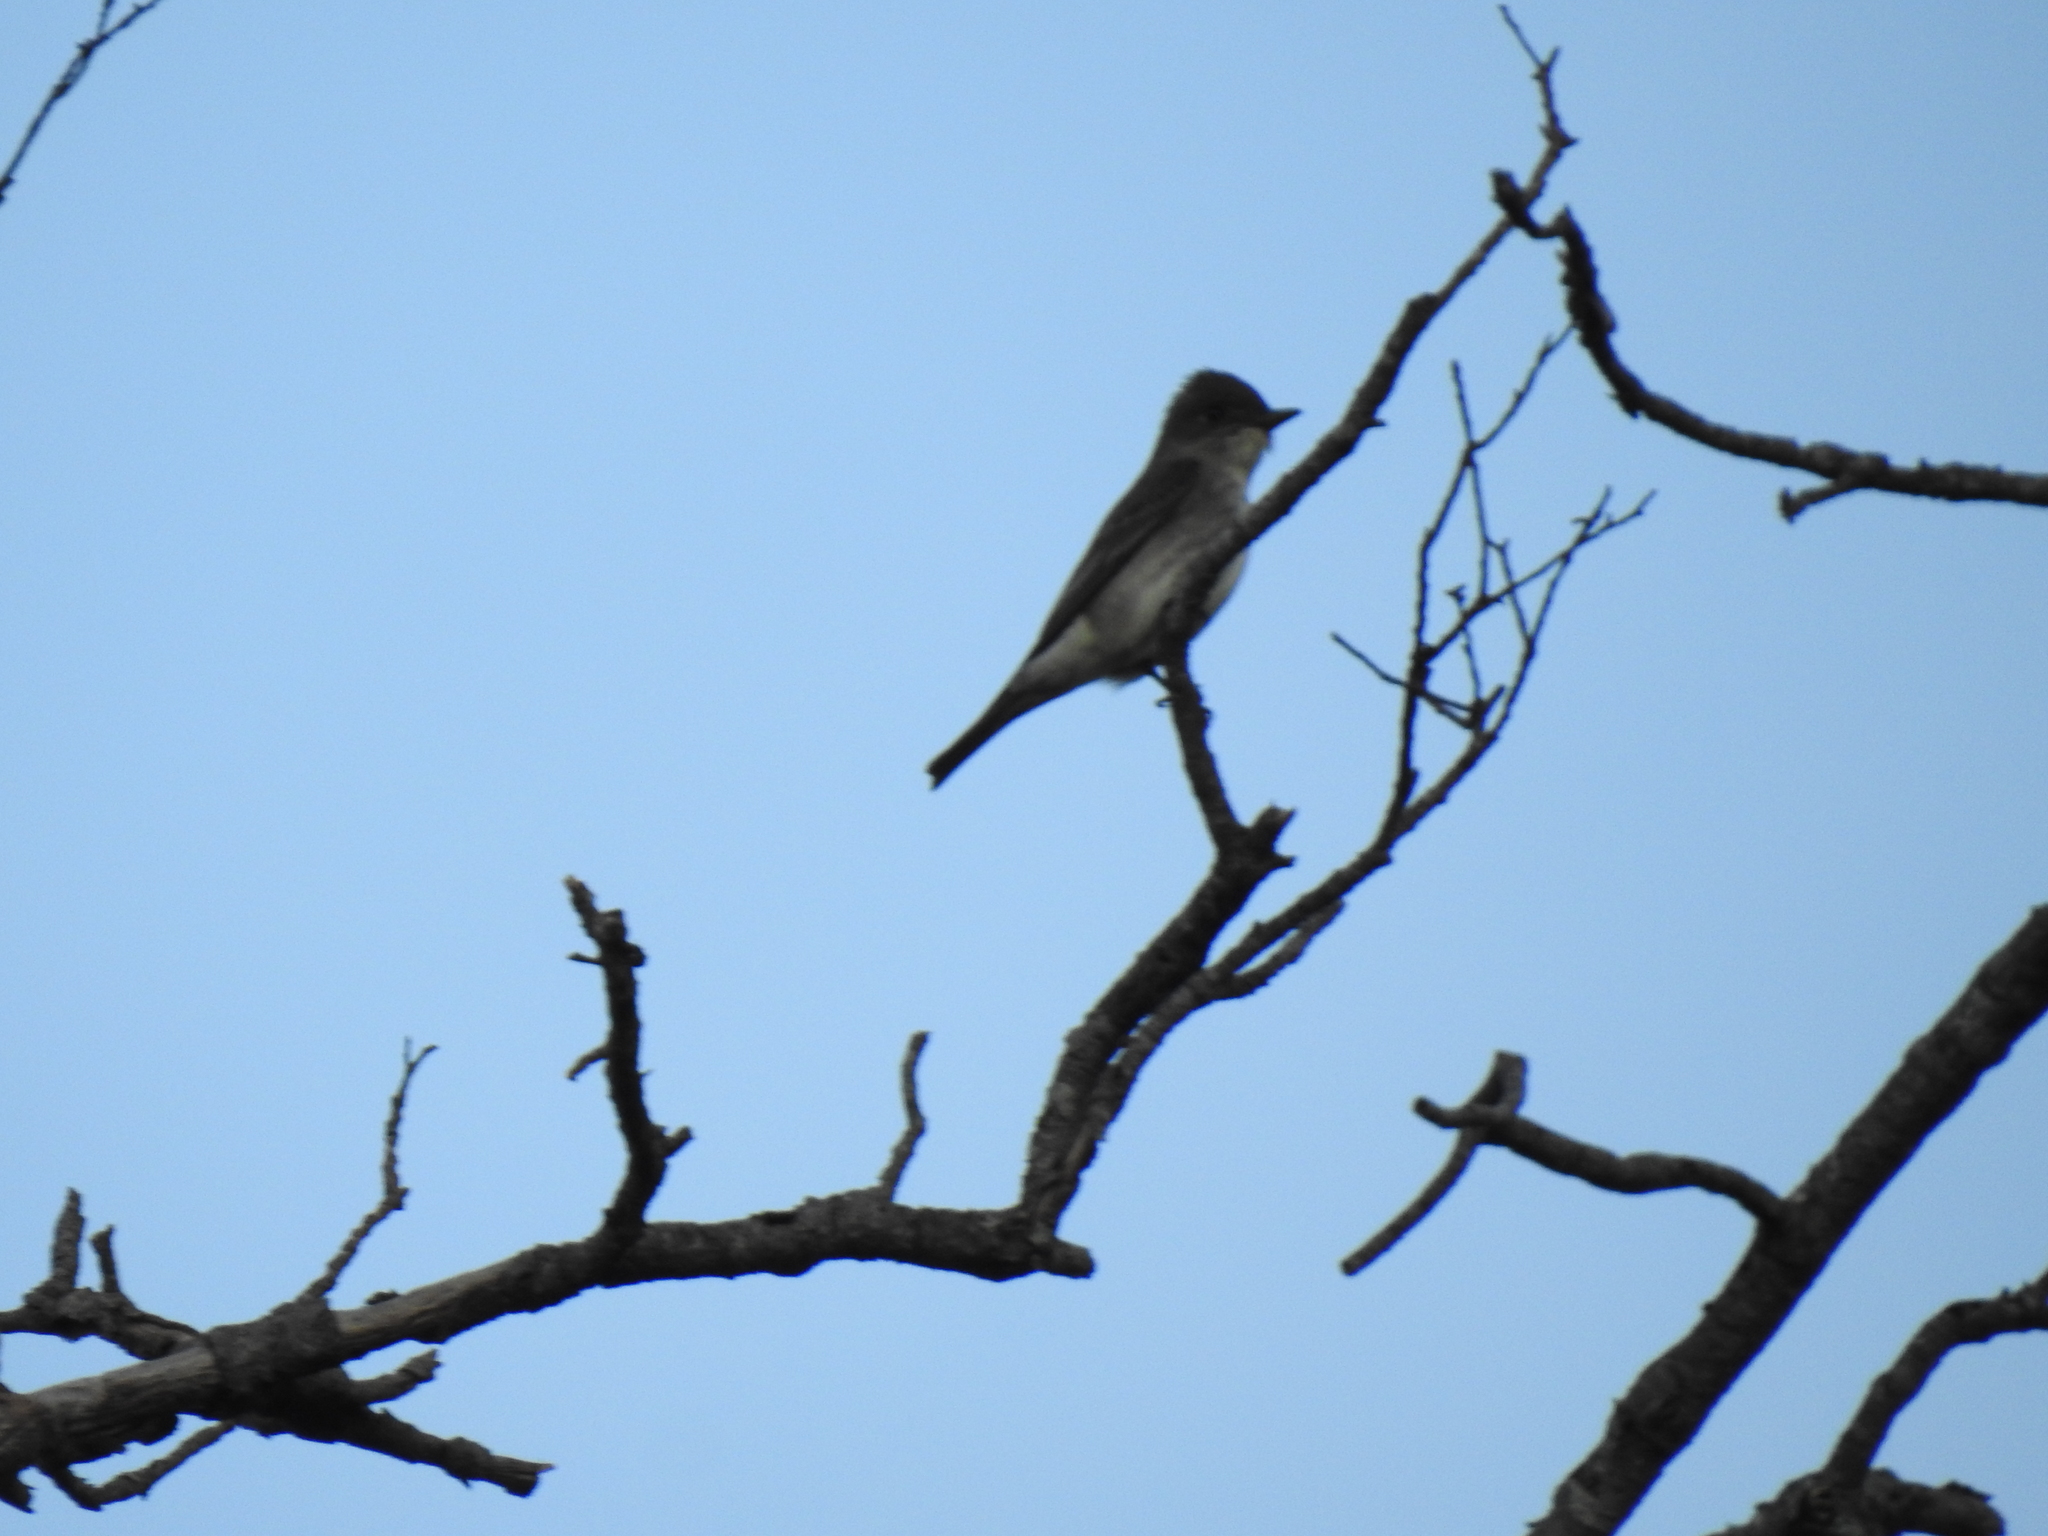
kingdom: Animalia
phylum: Chordata
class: Aves
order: Passeriformes
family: Tyrannidae
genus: Contopus
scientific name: Contopus cooperi
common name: Olive-sided flycatcher
